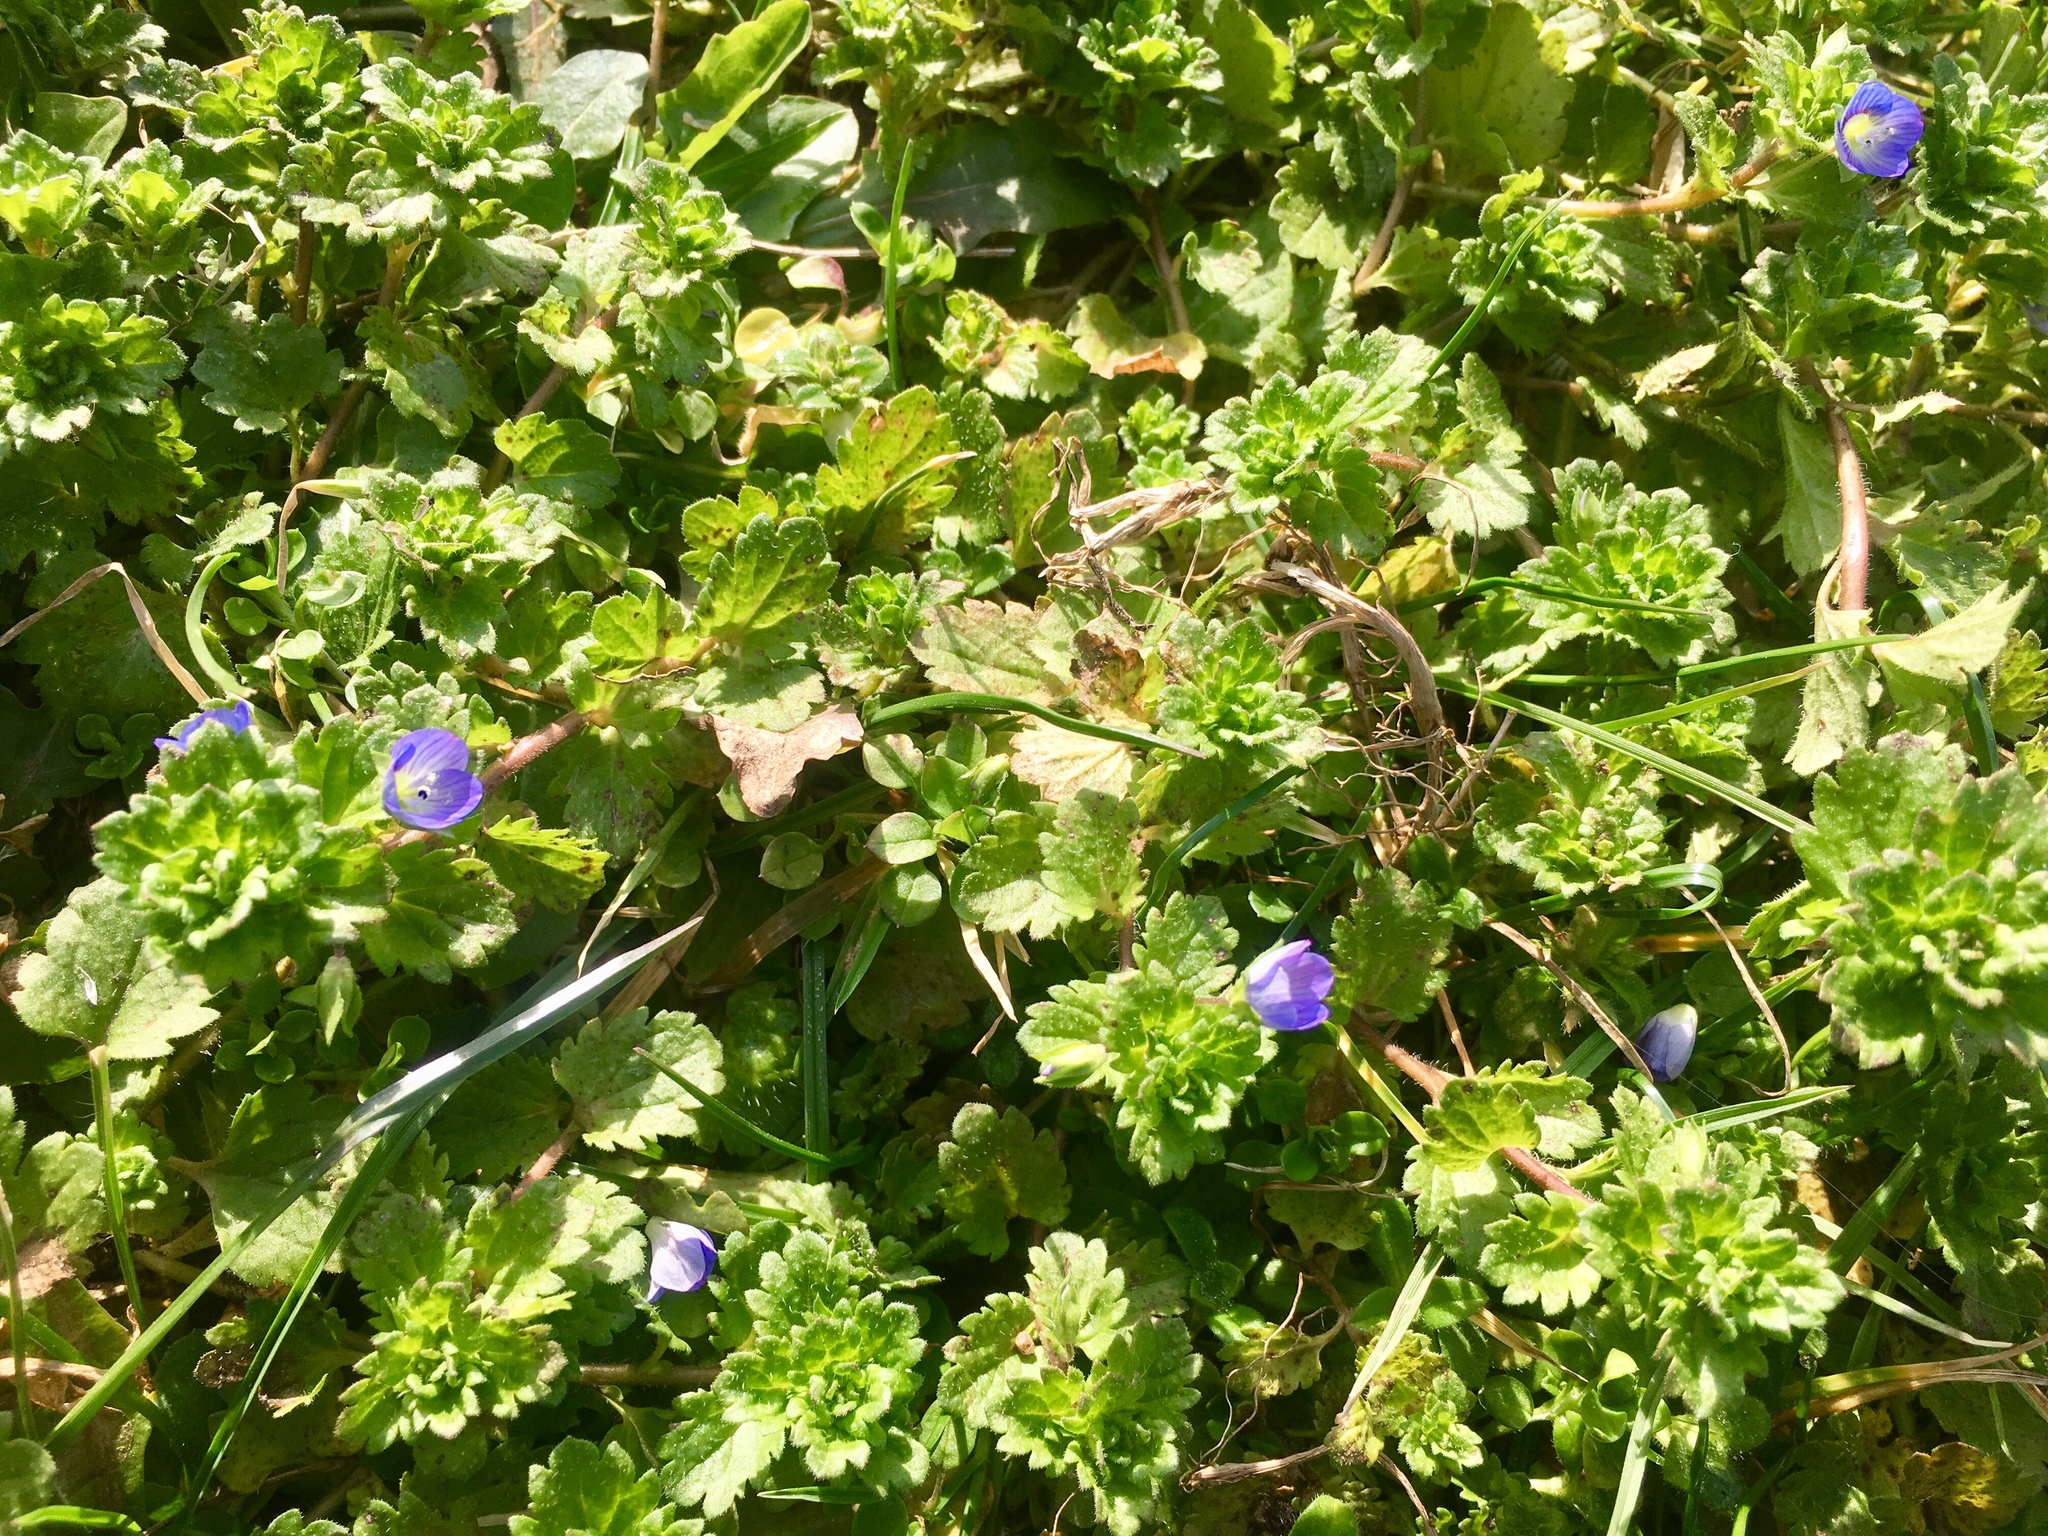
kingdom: Plantae
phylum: Tracheophyta
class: Magnoliopsida
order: Lamiales
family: Plantaginaceae
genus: Veronica
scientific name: Veronica persica
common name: Common field-speedwell
